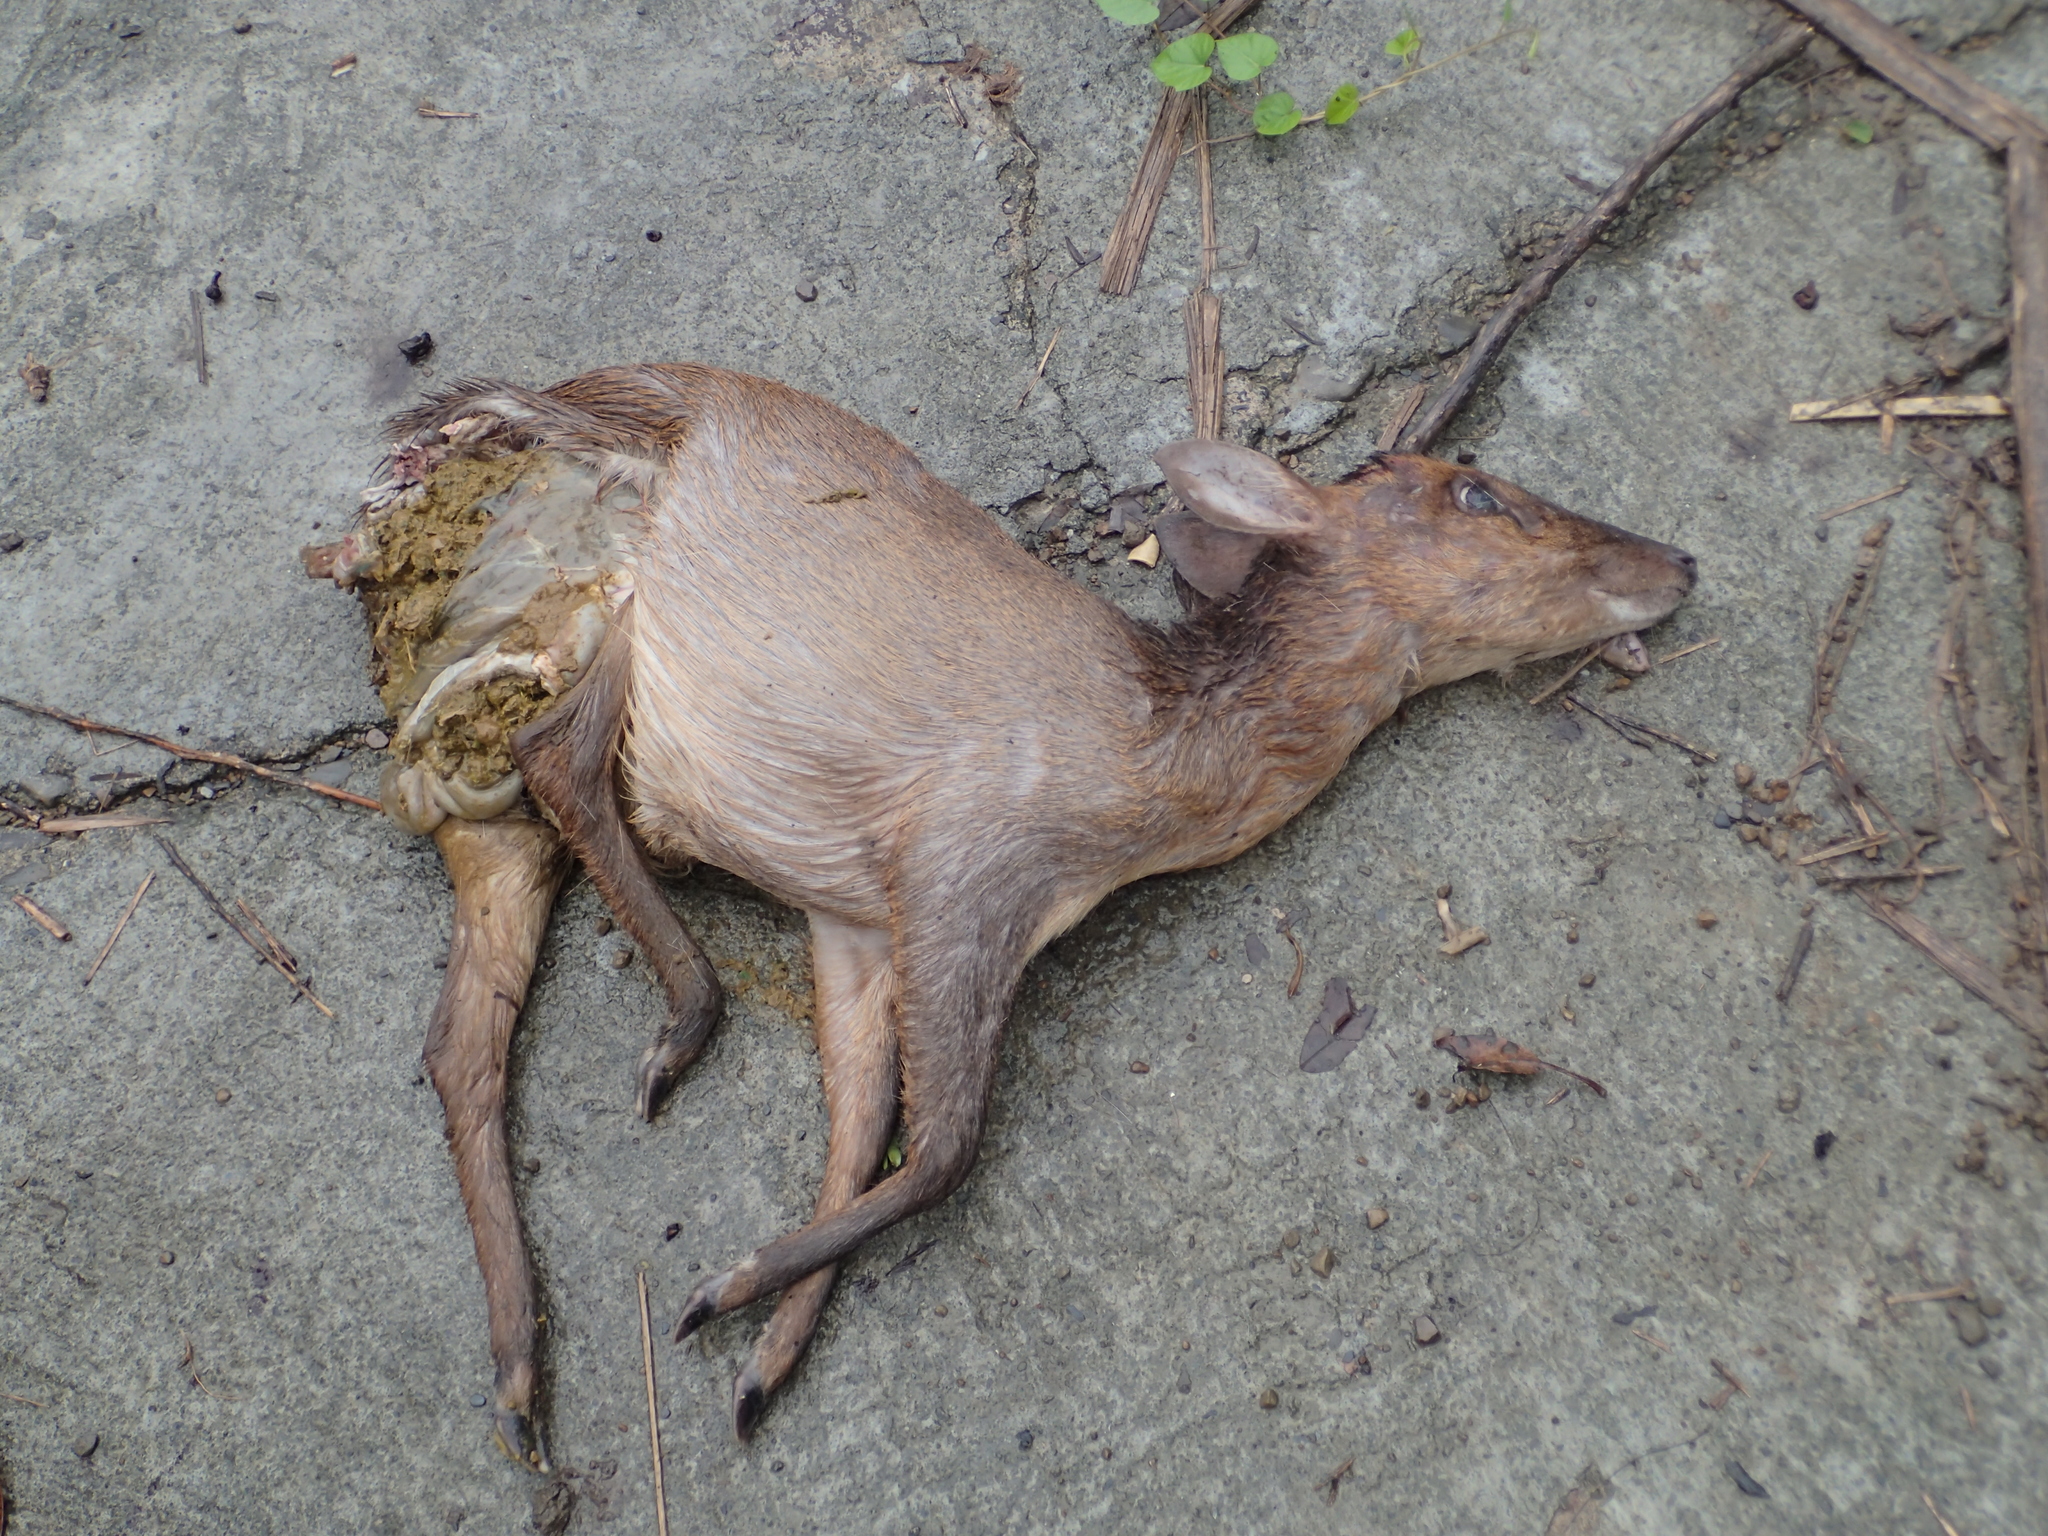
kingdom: Animalia
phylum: Chordata
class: Mammalia
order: Artiodactyla
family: Cervidae
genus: Muntiacus
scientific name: Muntiacus reevesi
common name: Reeves' muntjac
